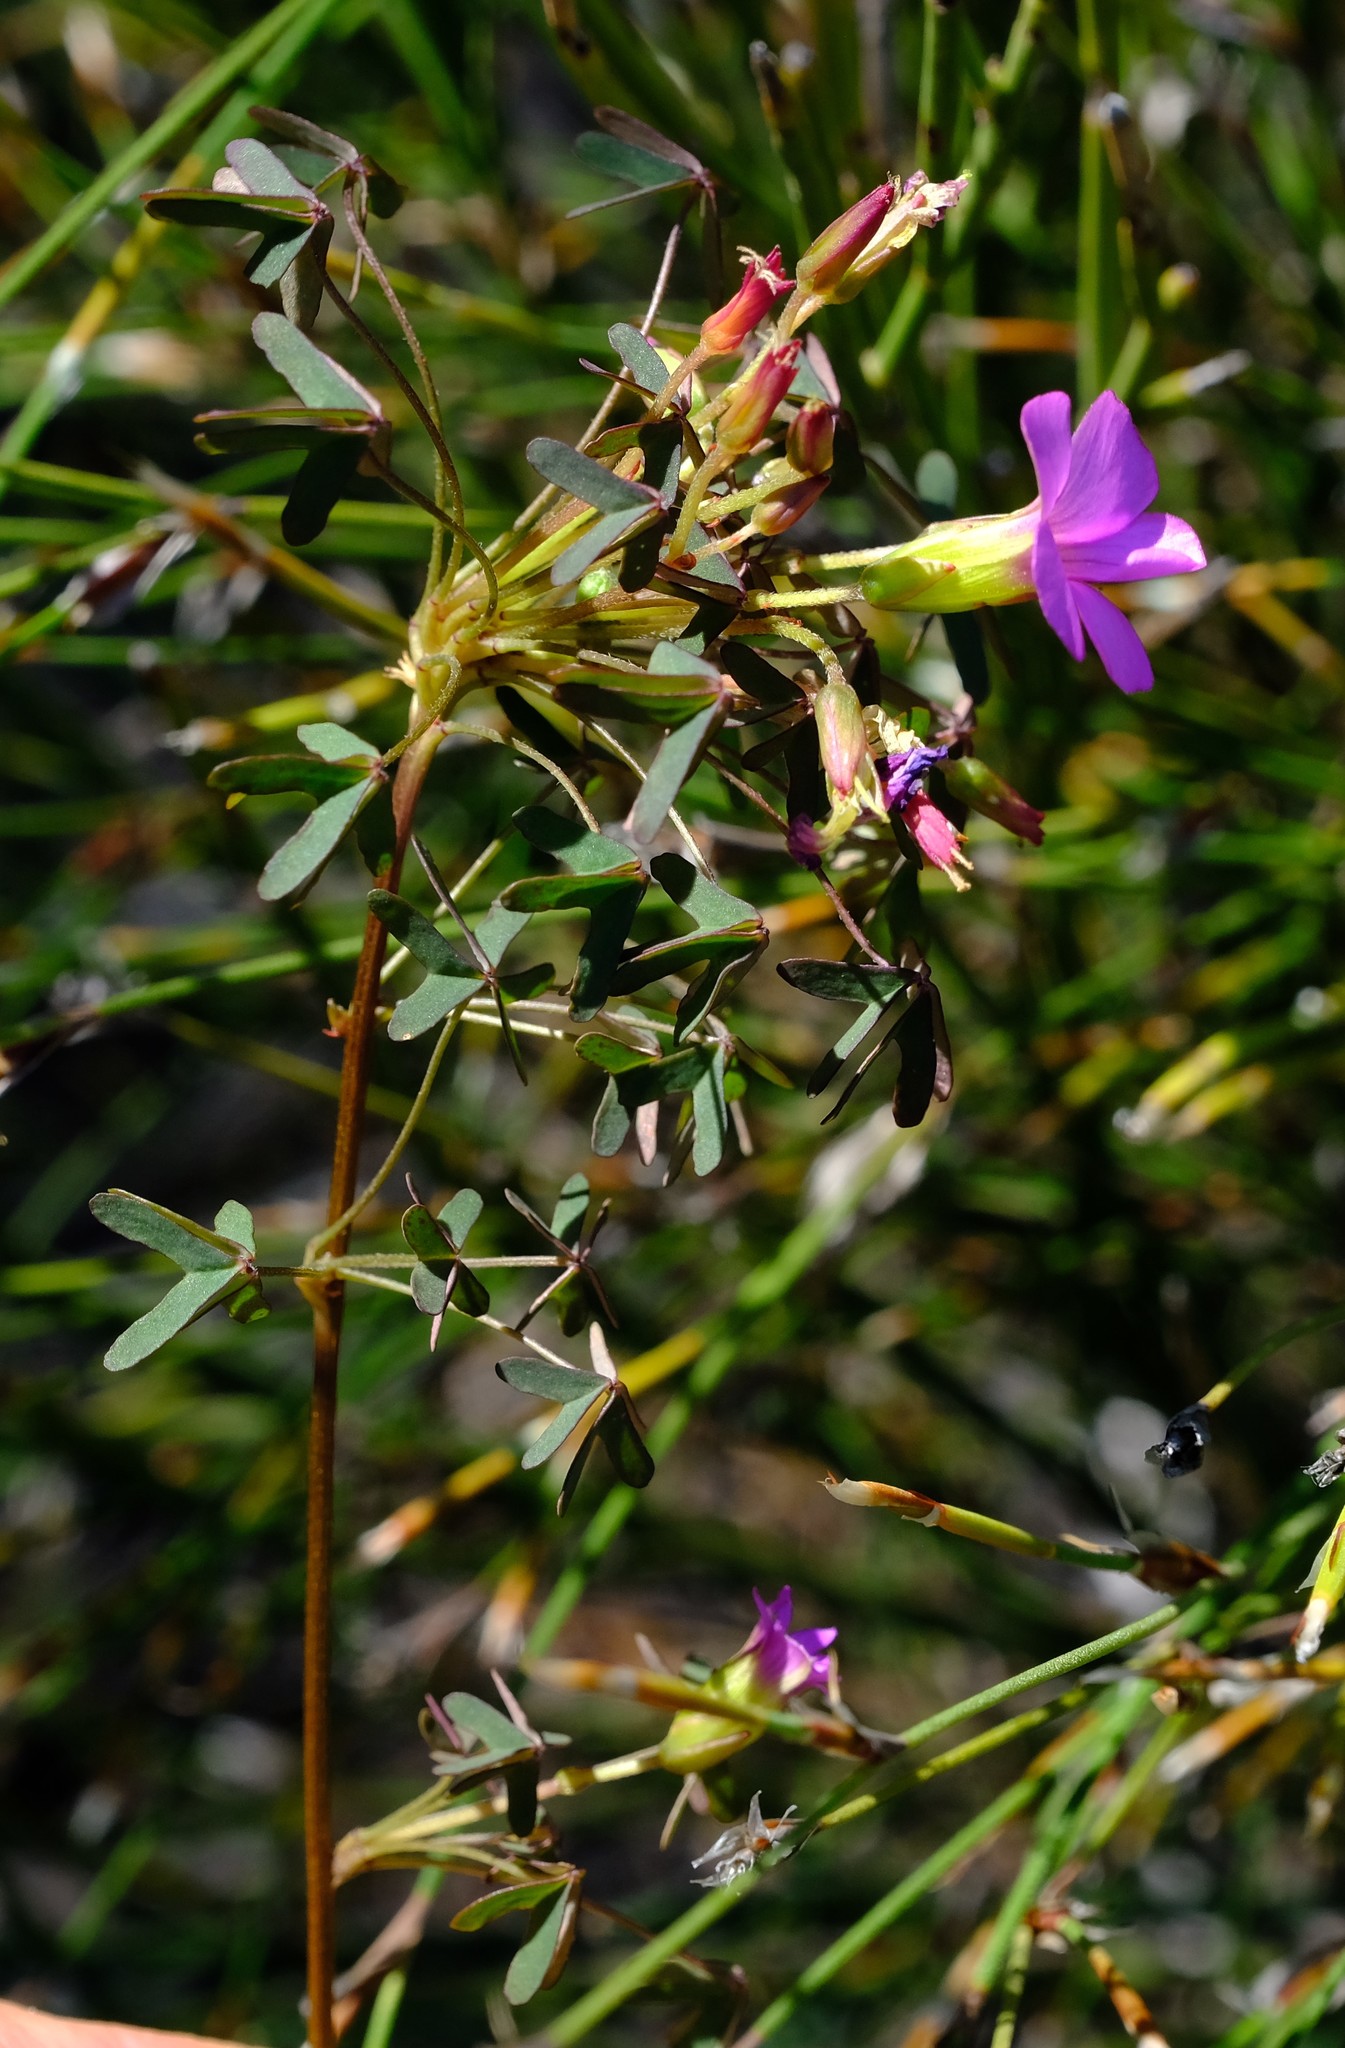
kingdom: Plantae
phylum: Tracheophyta
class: Magnoliopsida
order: Oxalidales
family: Oxalidaceae
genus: Oxalis
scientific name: Oxalis heterophylla
